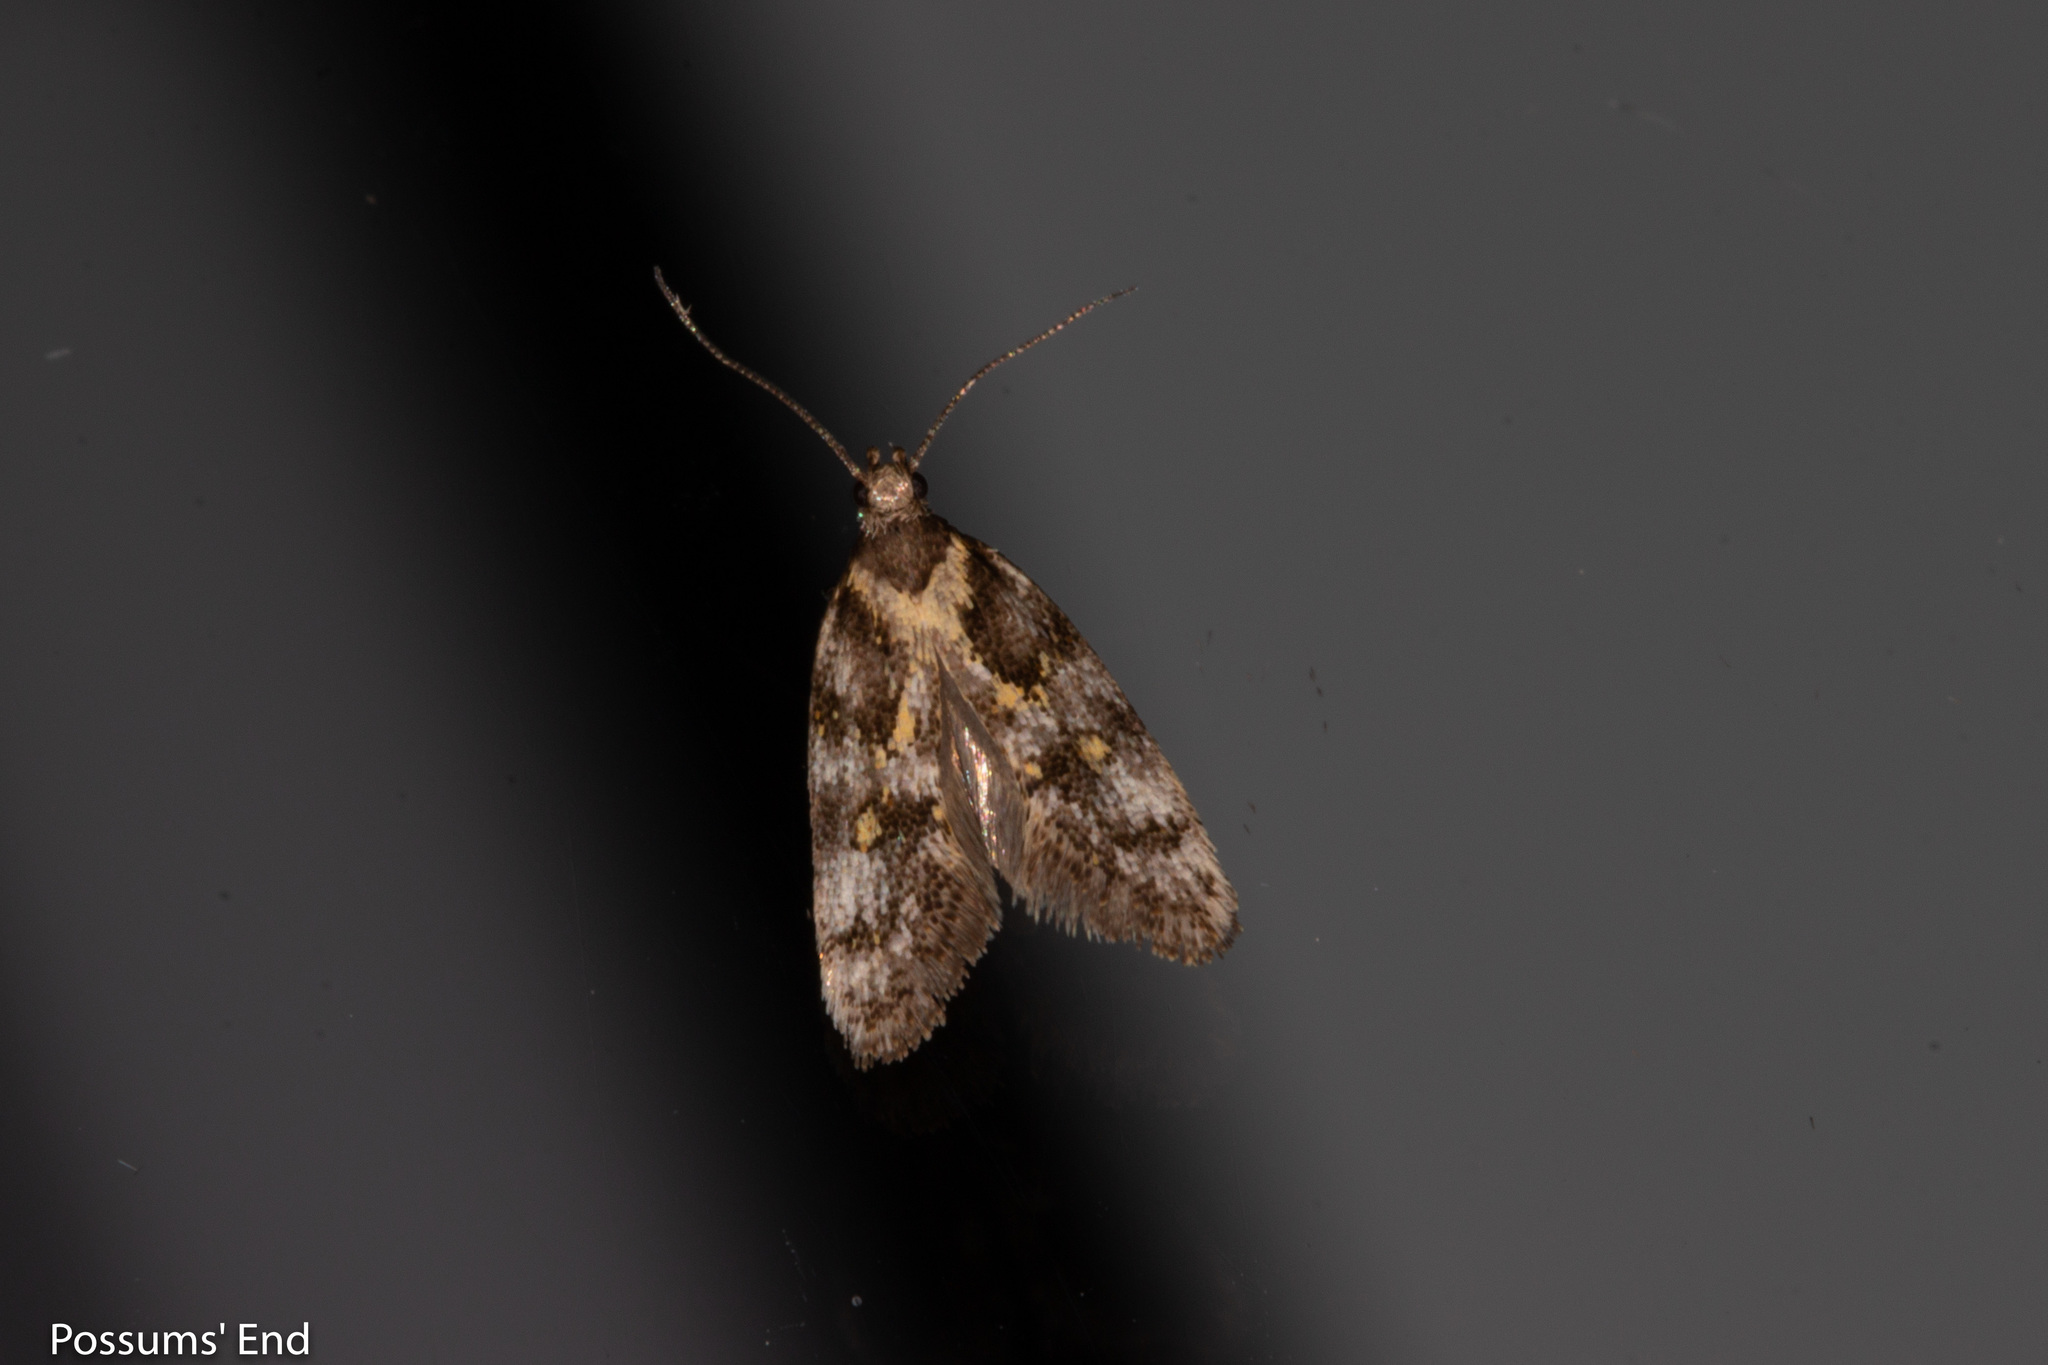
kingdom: Animalia
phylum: Arthropoda
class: Insecta
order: Lepidoptera
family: Oecophoridae
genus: Tingena
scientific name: Tingena lassa
